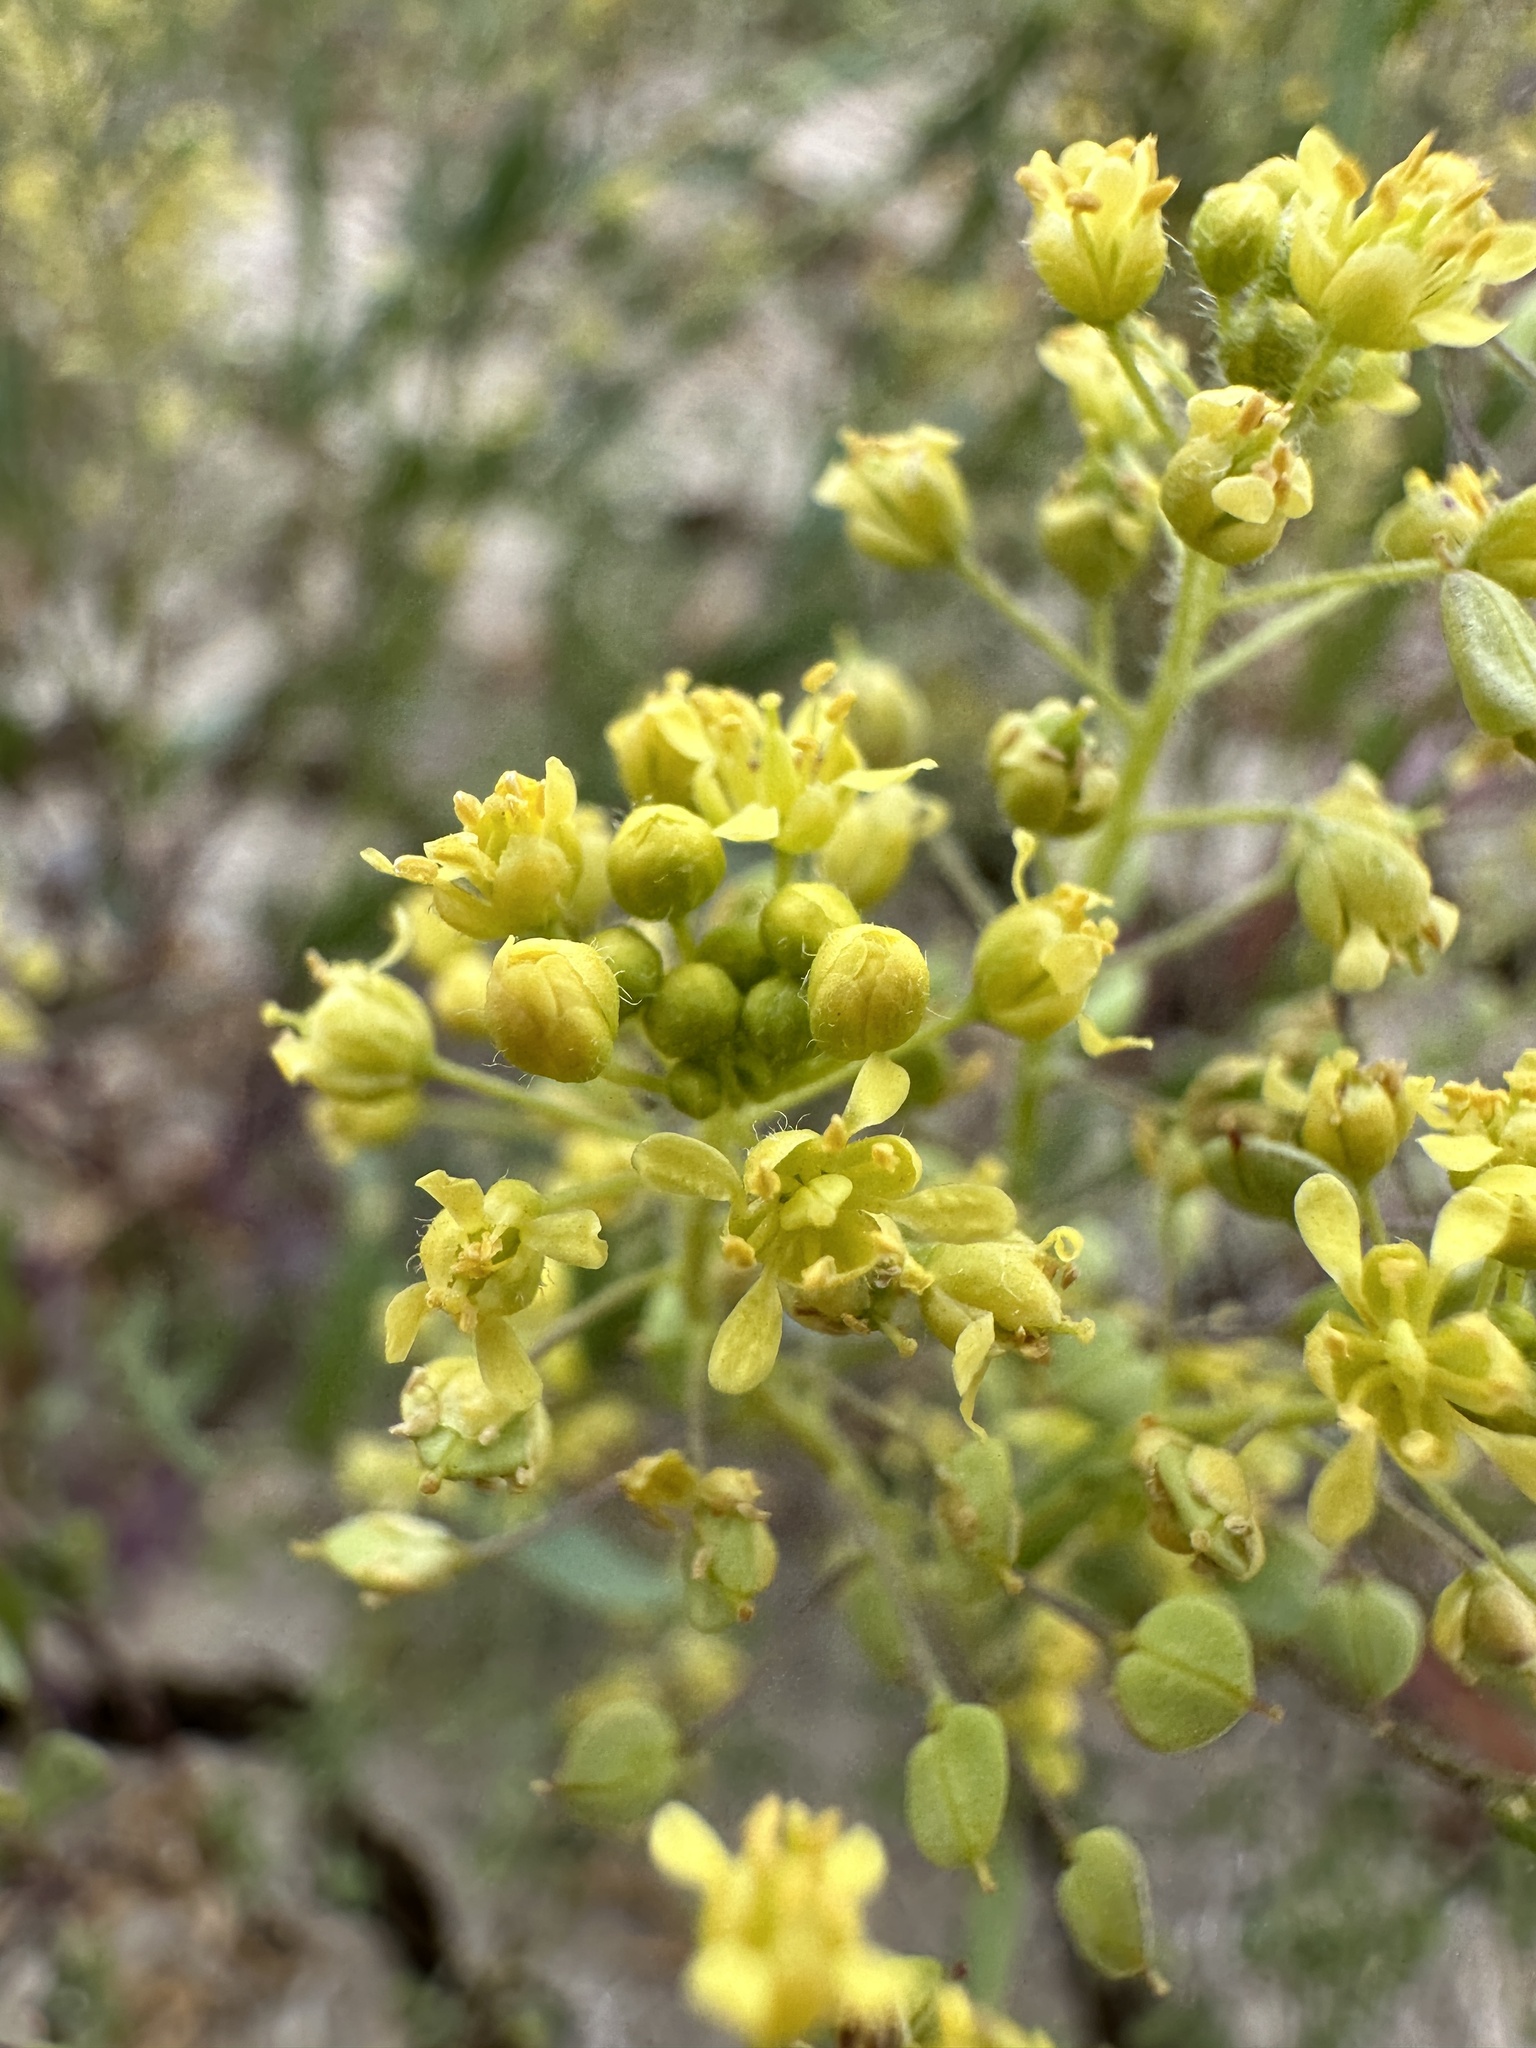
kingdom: Plantae
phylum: Tracheophyta
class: Magnoliopsida
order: Brassicales
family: Brassicaceae
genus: Lepidium
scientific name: Lepidium jaredii
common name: Jared's peppergrass
